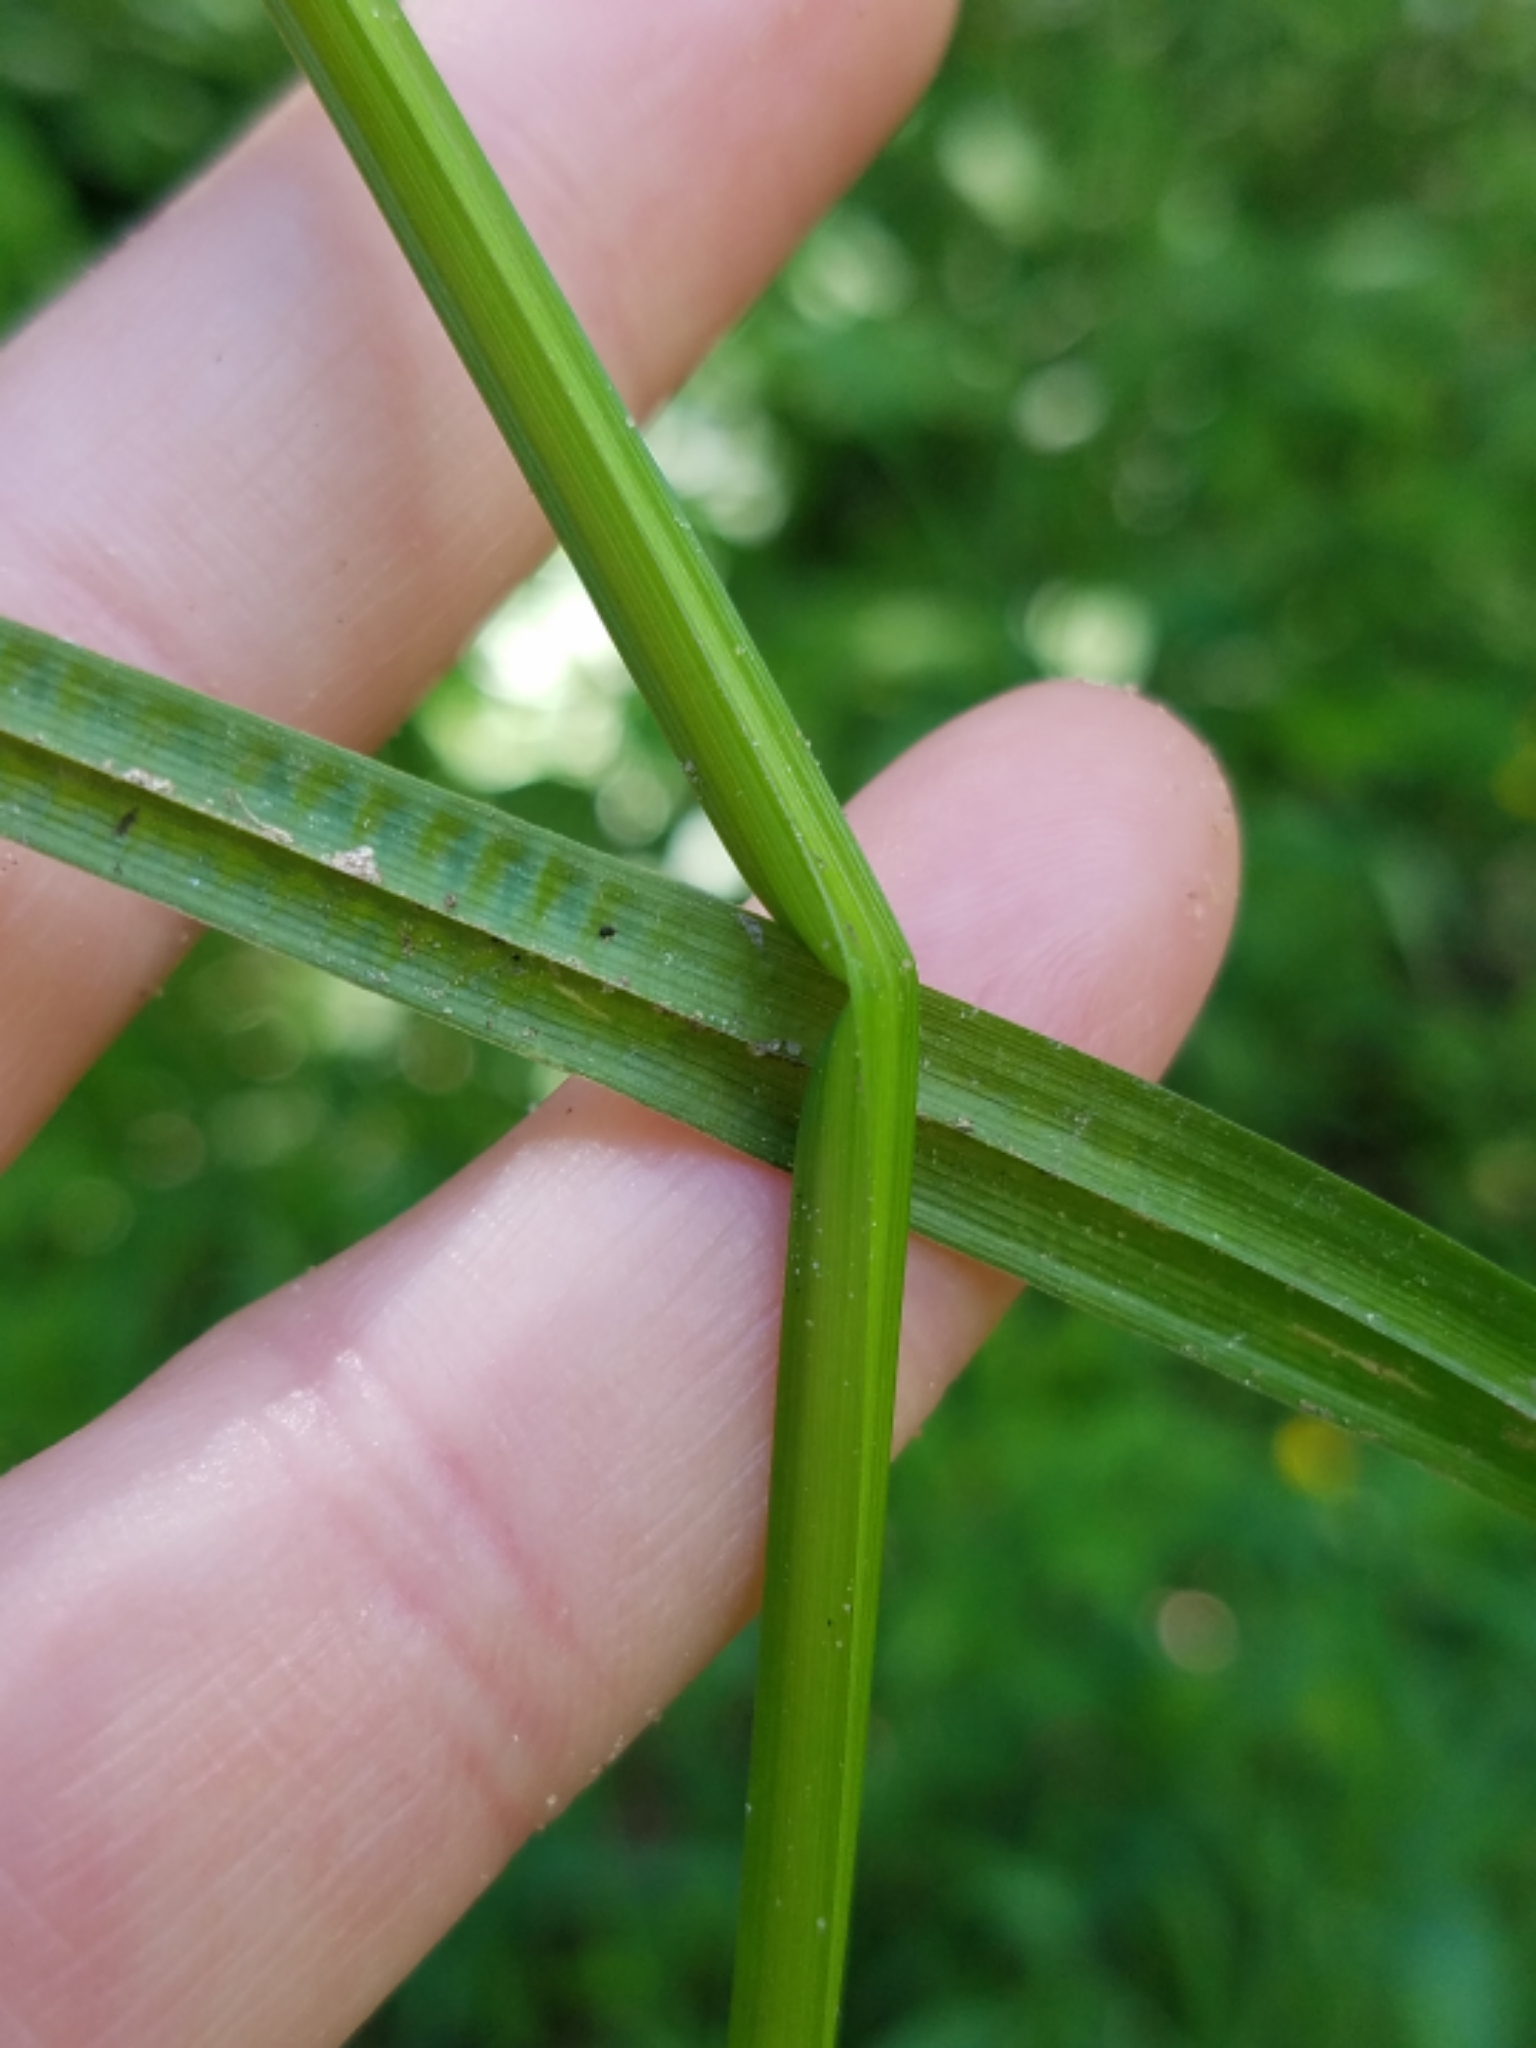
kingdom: Plantae
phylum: Tracheophyta
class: Liliopsida
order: Poales
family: Cyperaceae
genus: Carex
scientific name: Carex stipata
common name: Awl-fruited sedge
